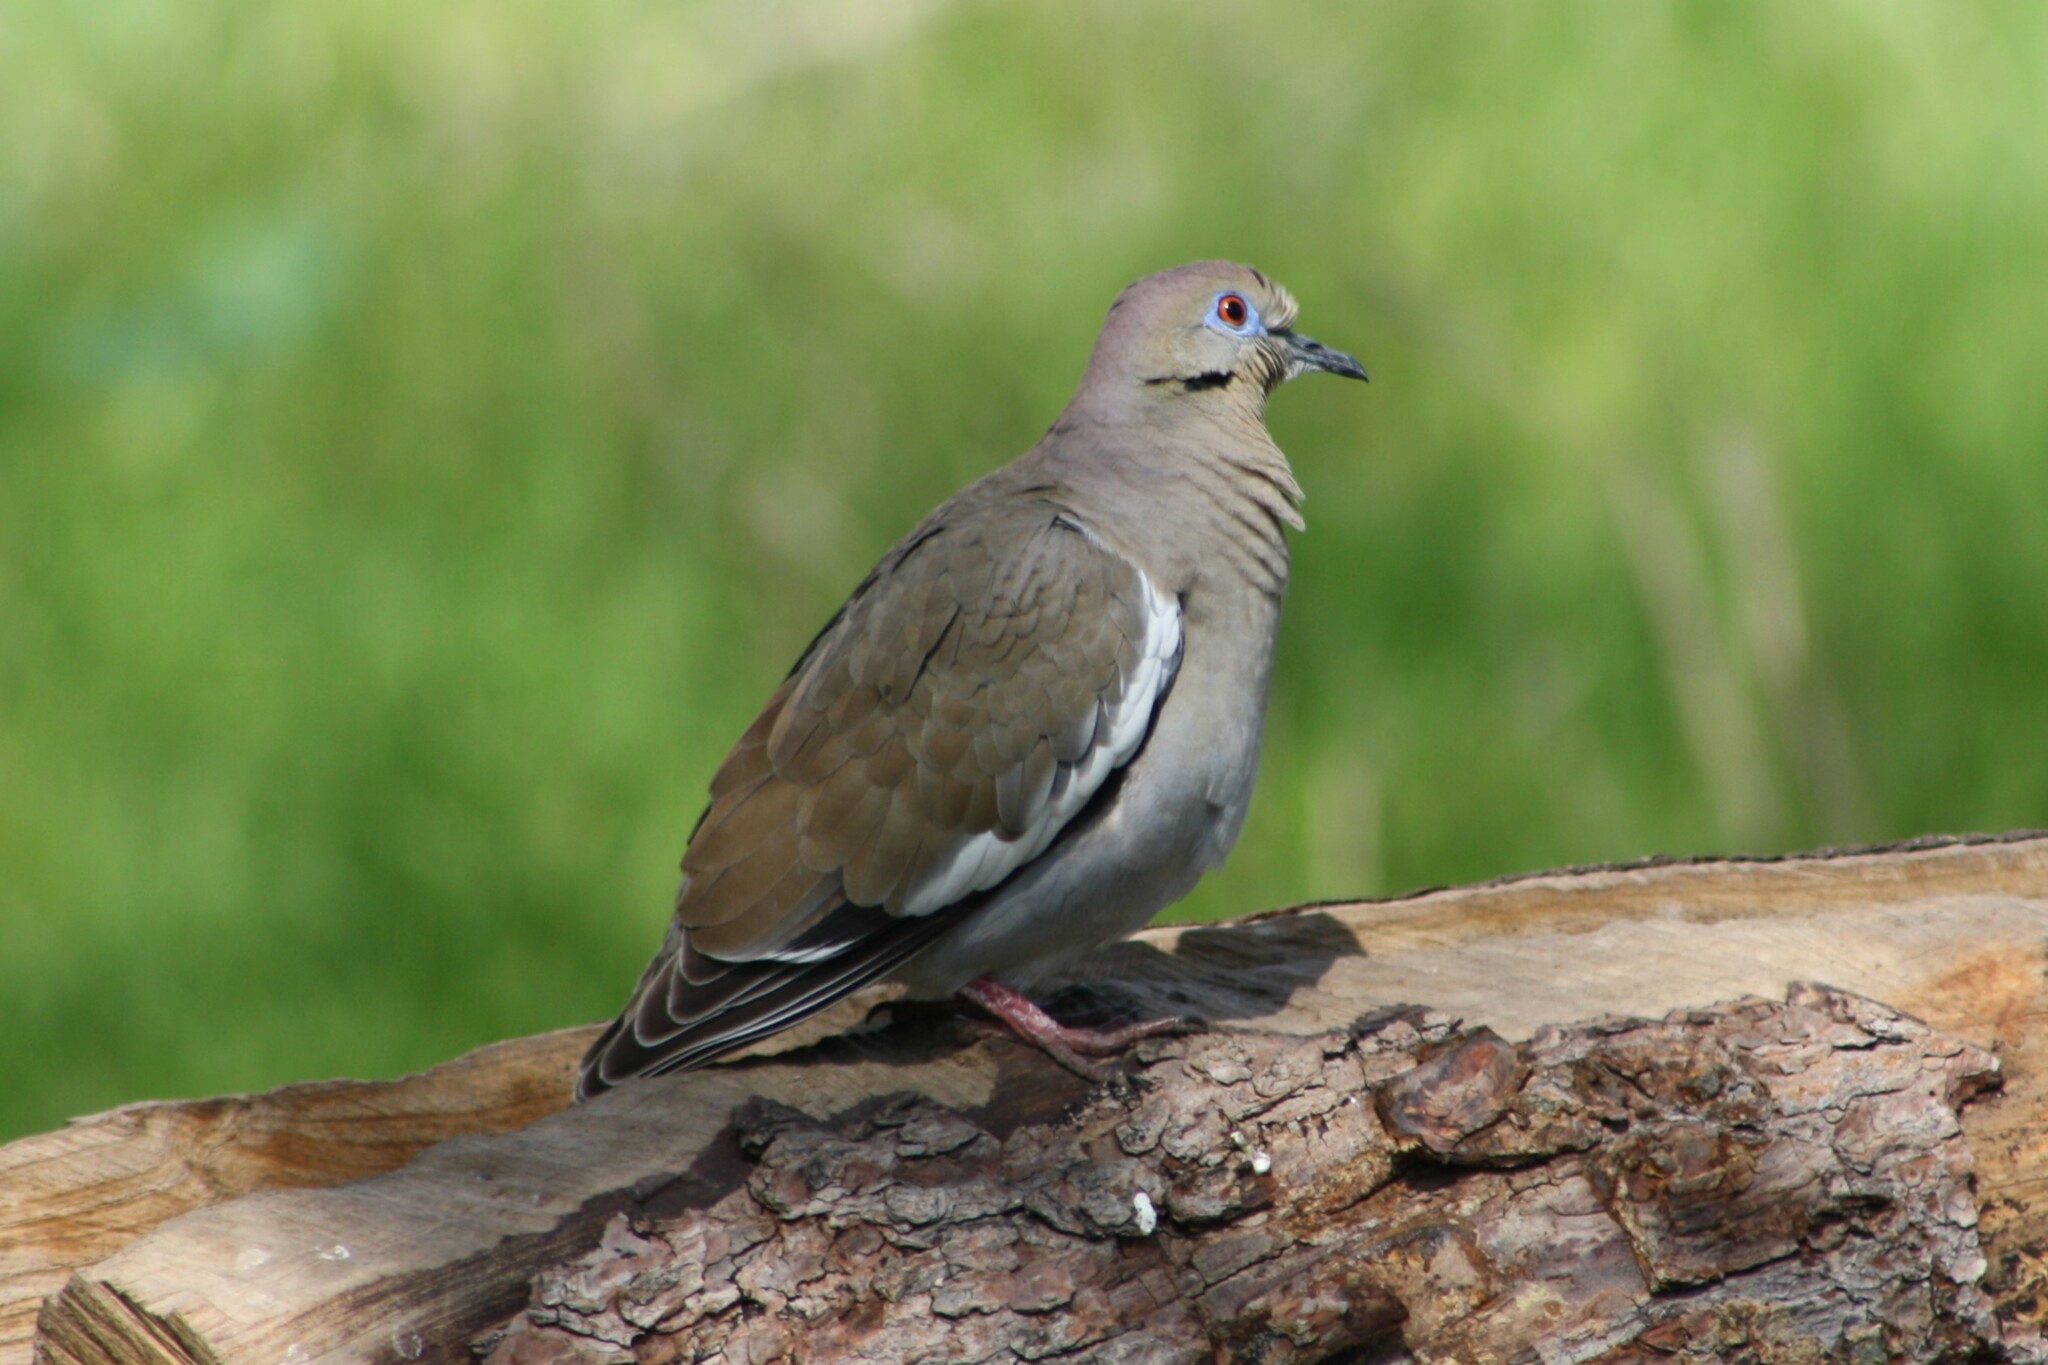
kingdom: Animalia
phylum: Chordata
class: Aves
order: Columbiformes
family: Columbidae
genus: Zenaida
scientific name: Zenaida asiatica
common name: White-winged dove
